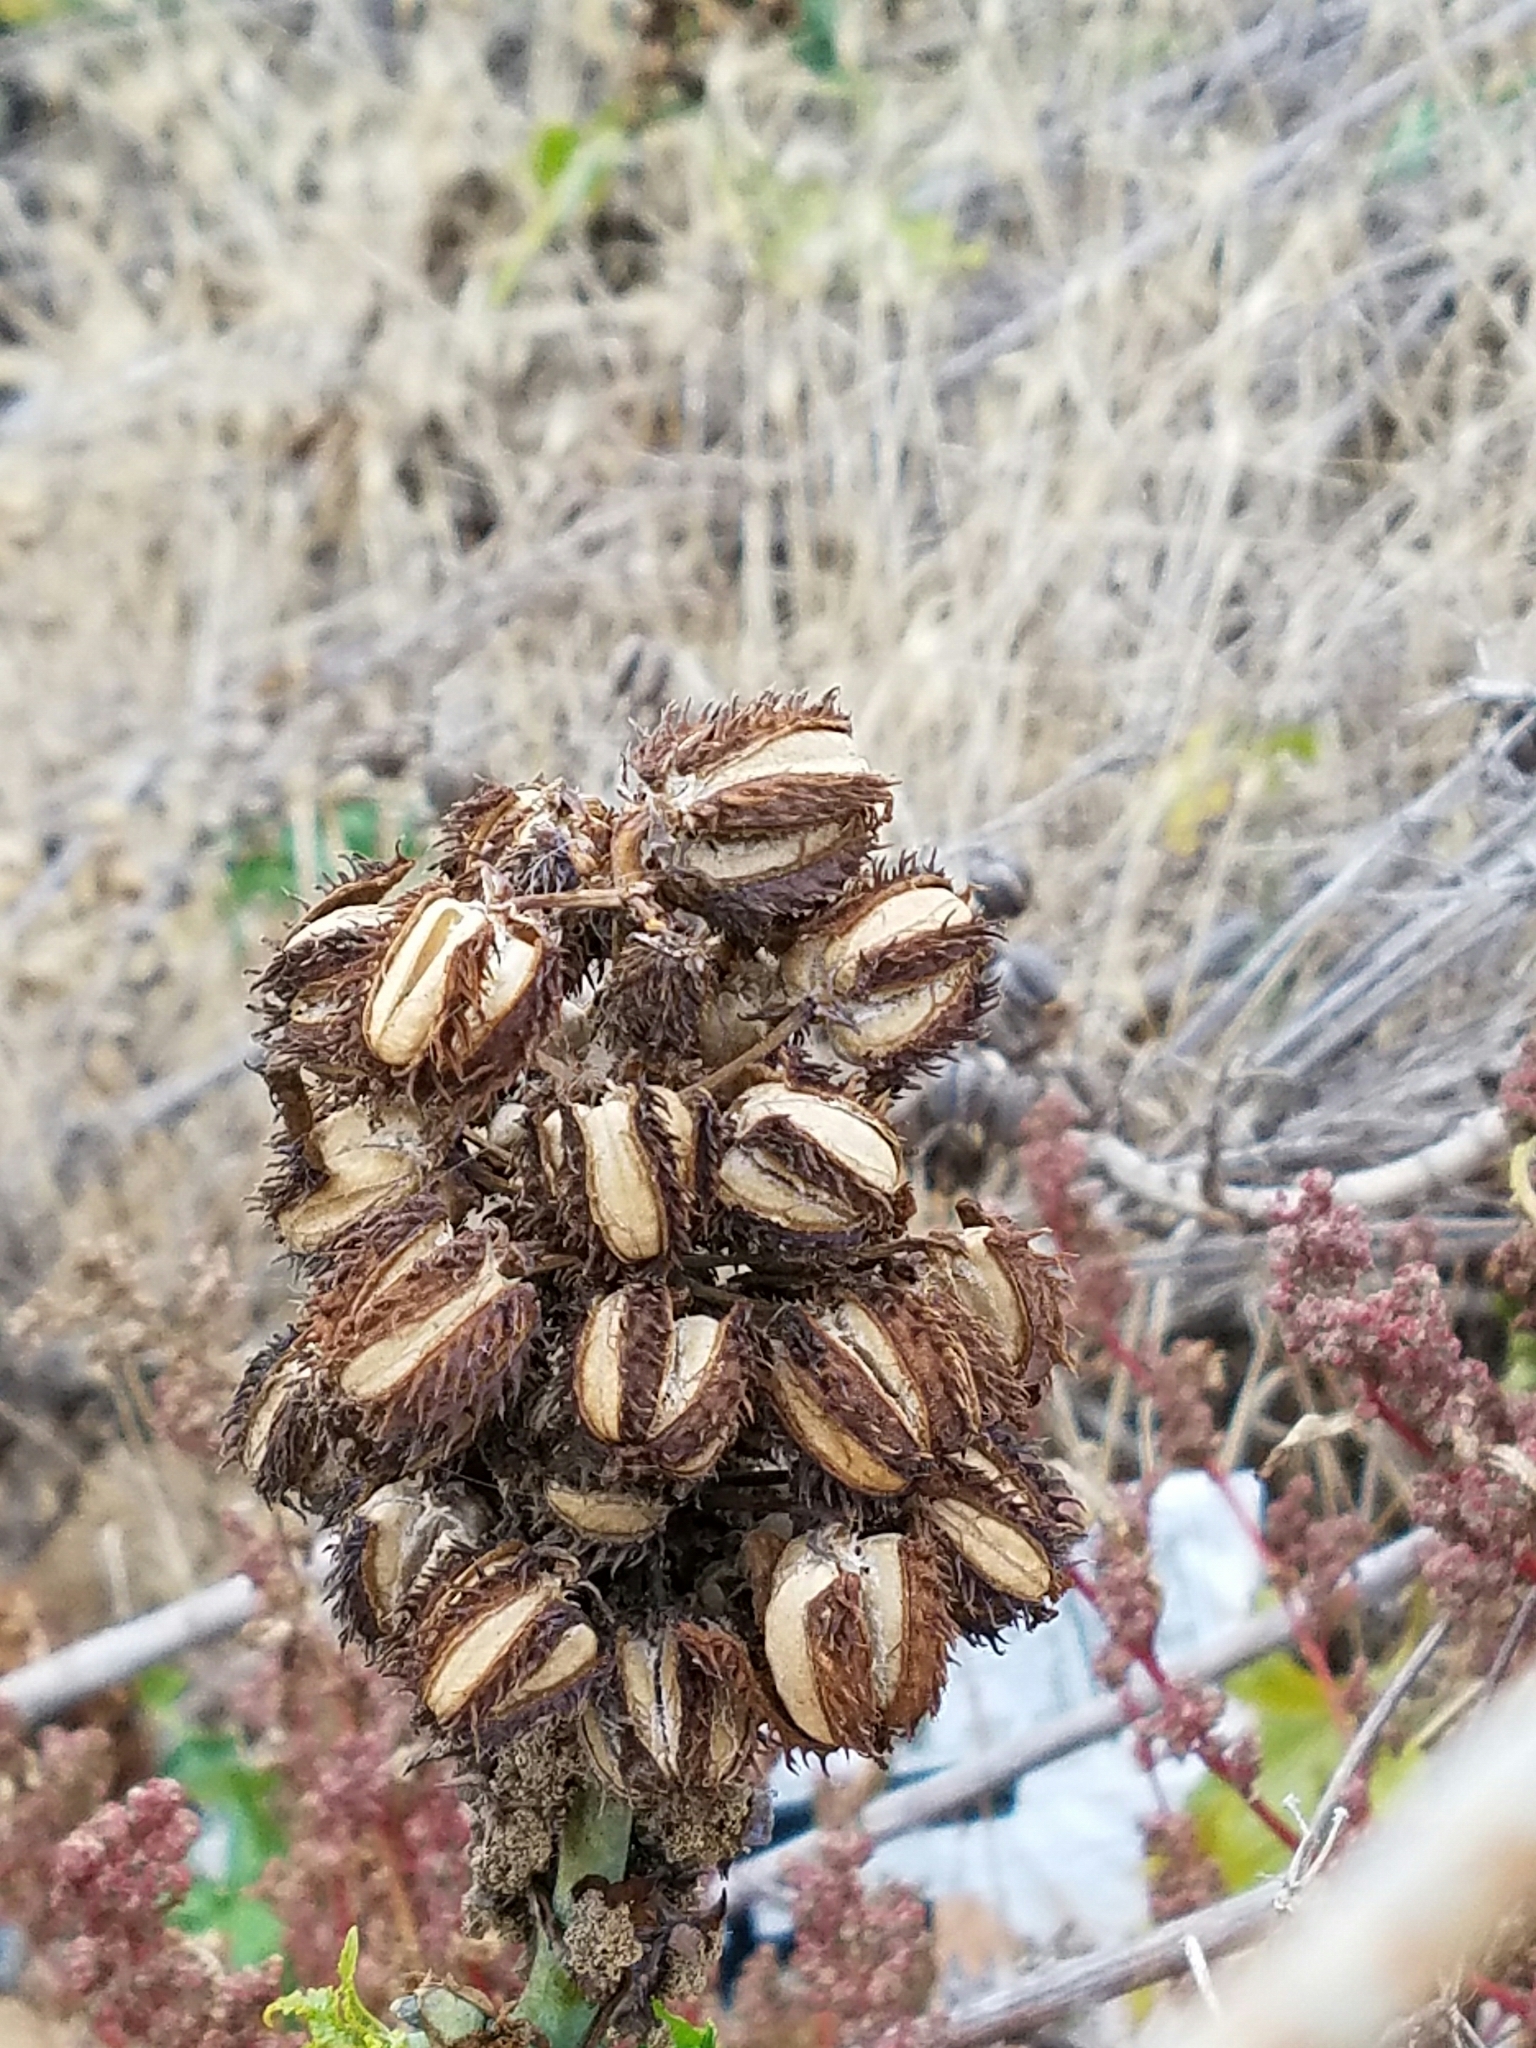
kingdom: Plantae
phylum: Tracheophyta
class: Magnoliopsida
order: Malpighiales
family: Euphorbiaceae
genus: Ricinus
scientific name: Ricinus communis
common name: Castor-oil-plant
